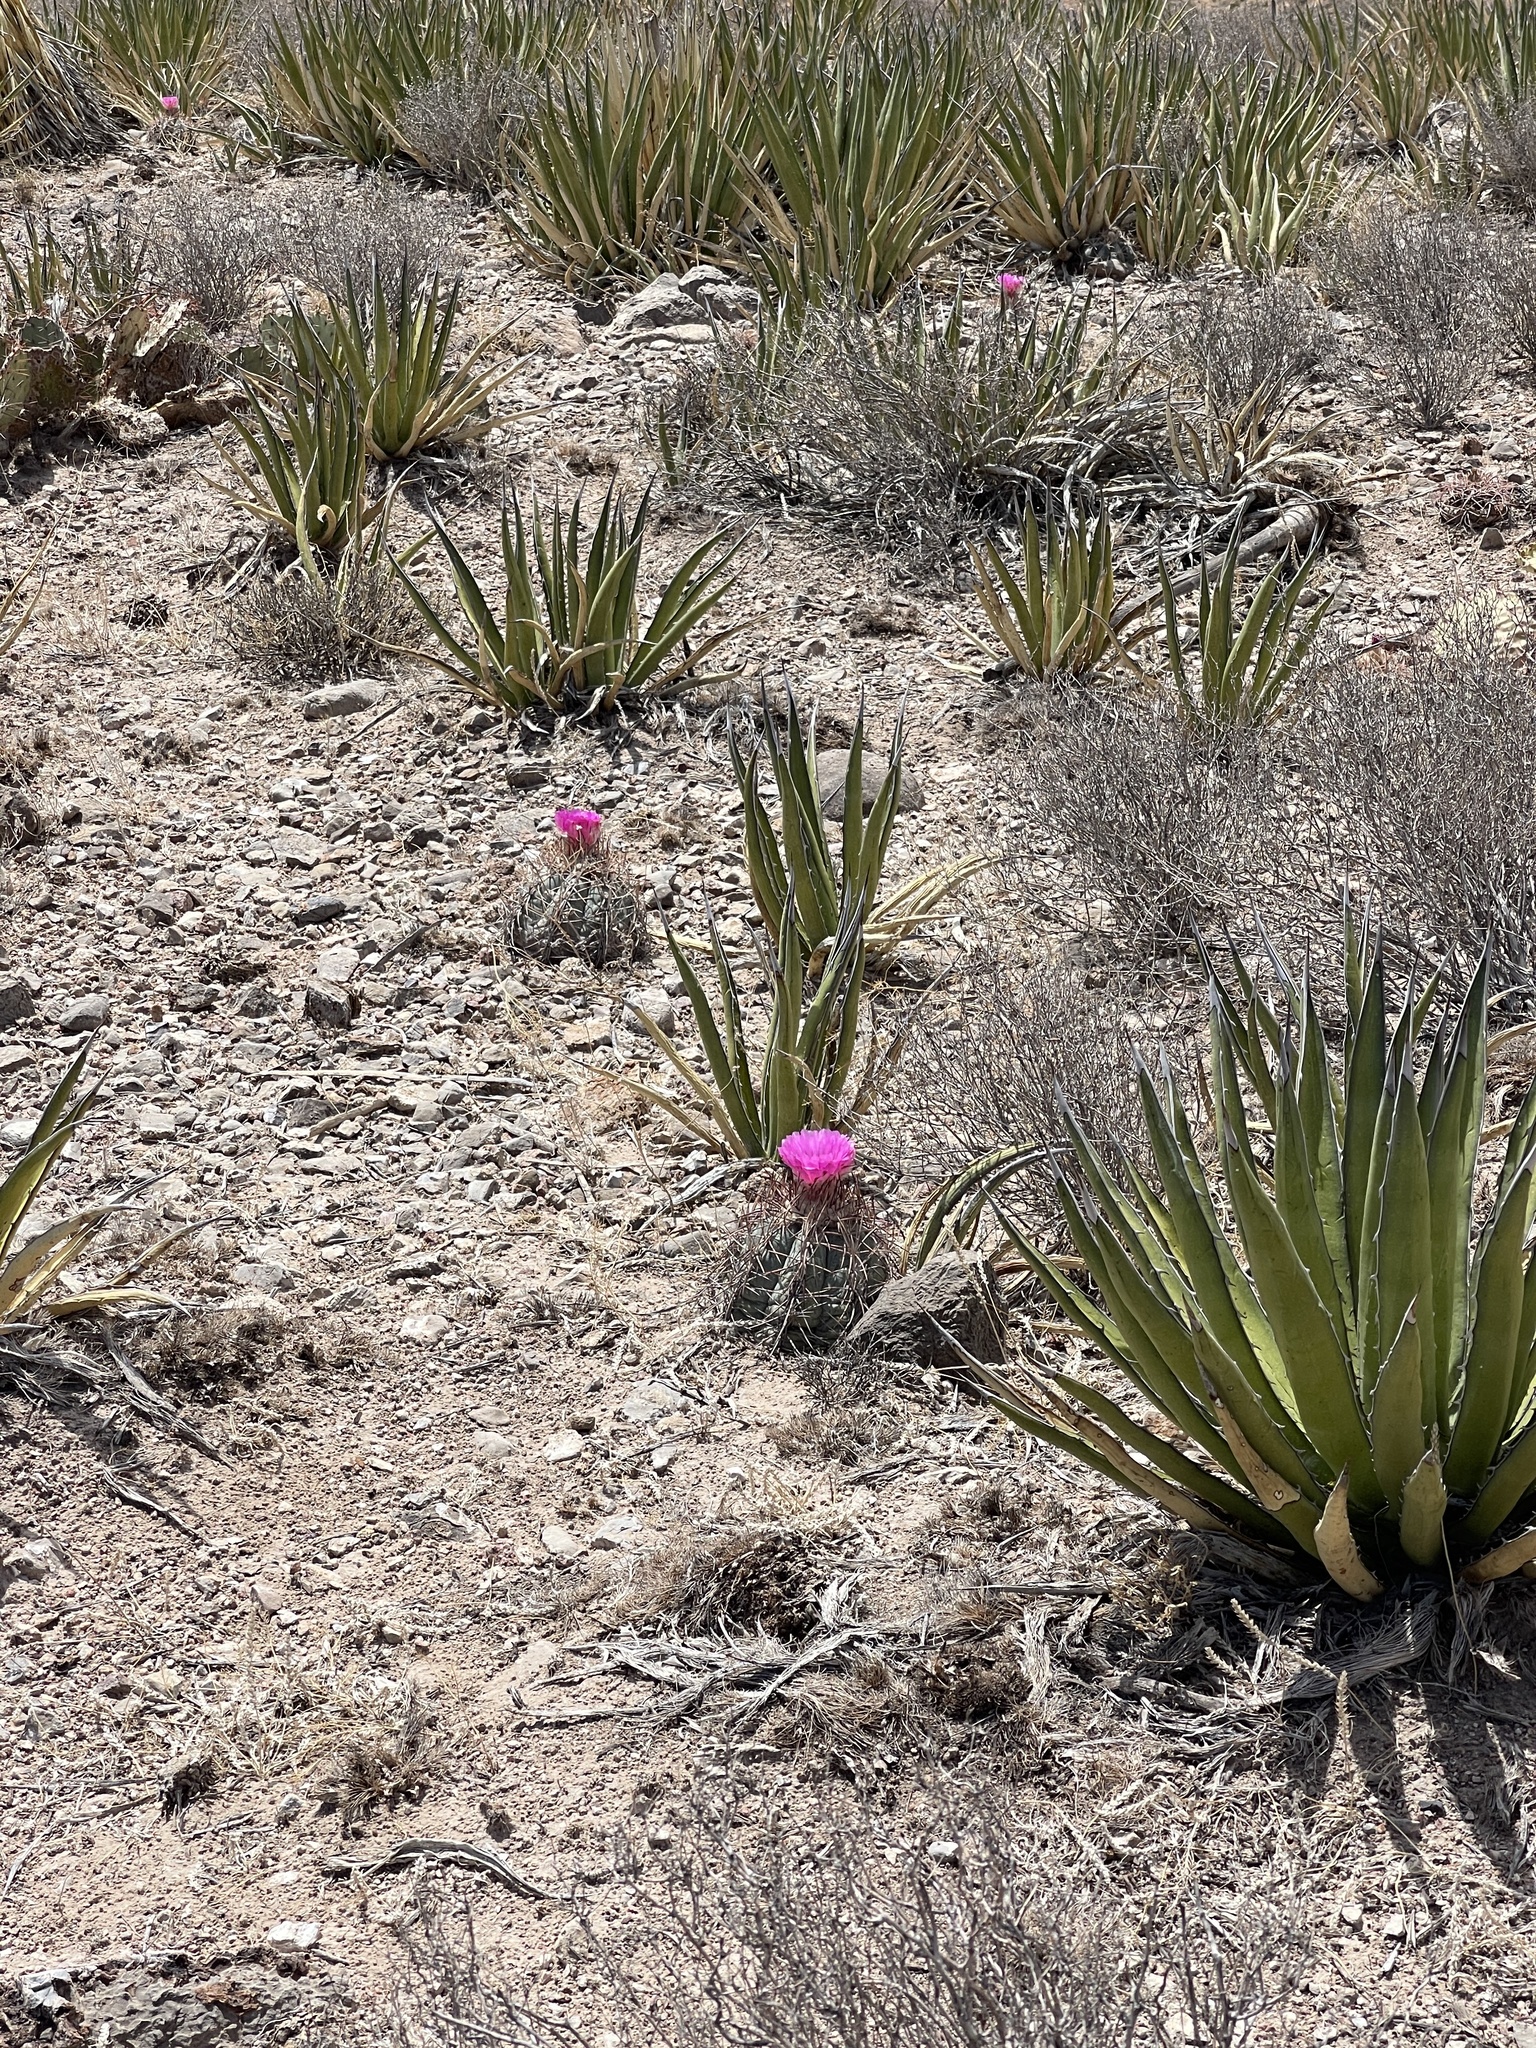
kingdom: Plantae
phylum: Tracheophyta
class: Magnoliopsida
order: Caryophyllales
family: Cactaceae
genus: Echinocactus
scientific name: Echinocactus horizonthalonius
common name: Devilshead
